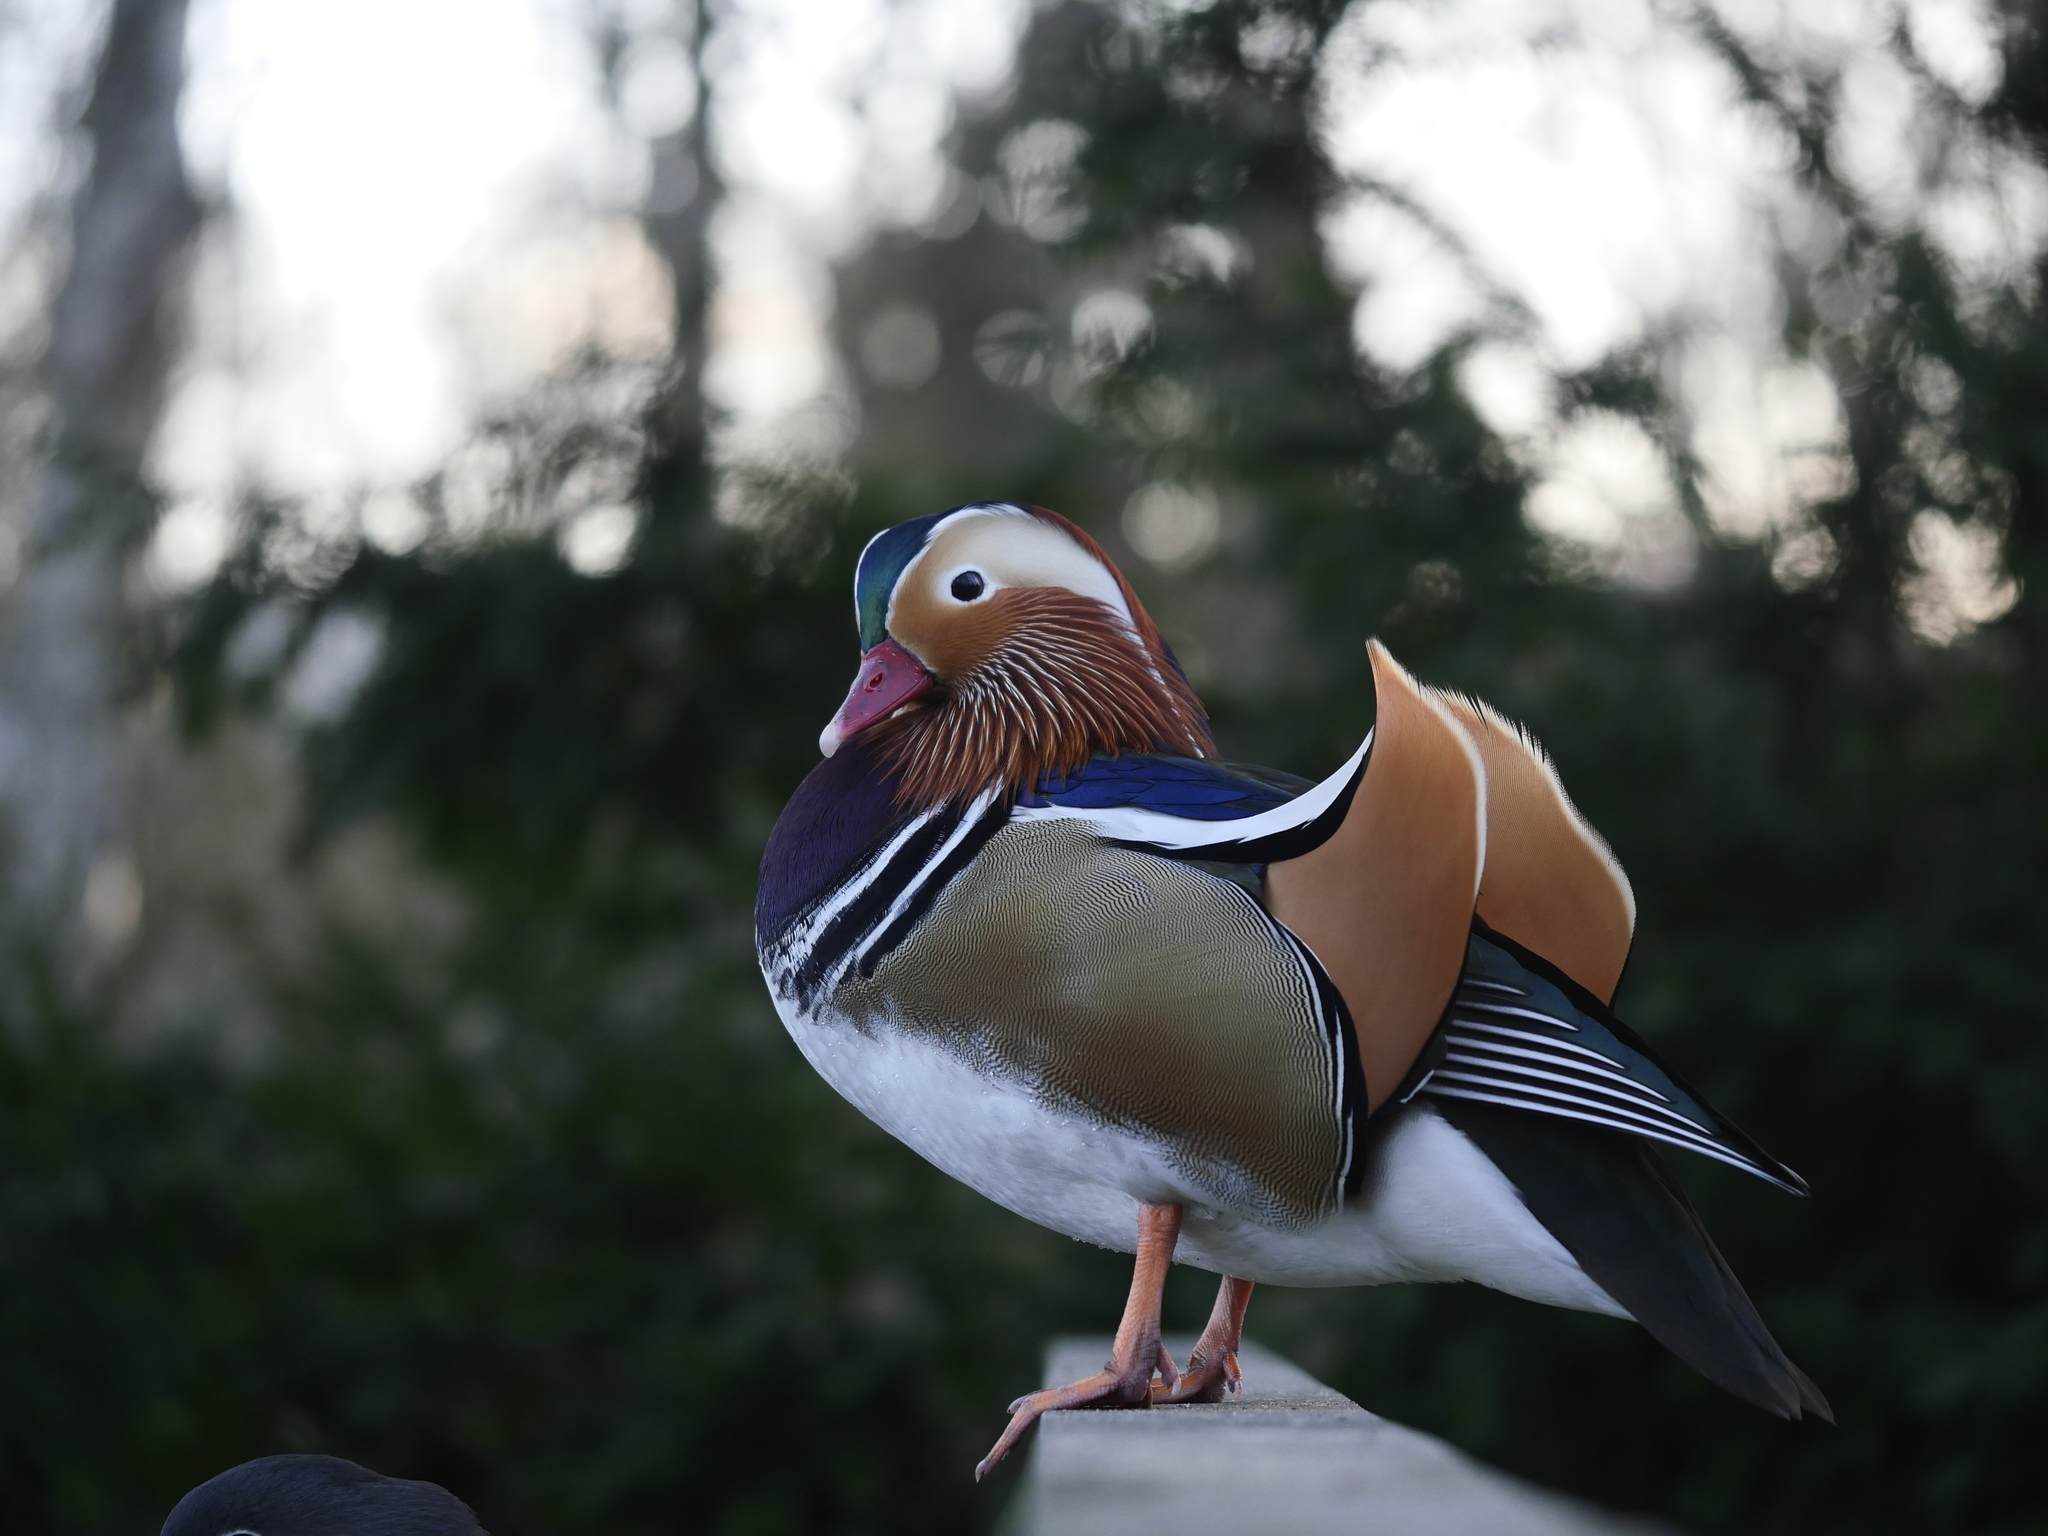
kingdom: Animalia
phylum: Chordata
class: Aves
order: Anseriformes
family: Anatidae
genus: Aix
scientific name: Aix galericulata
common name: Mandarin duck
